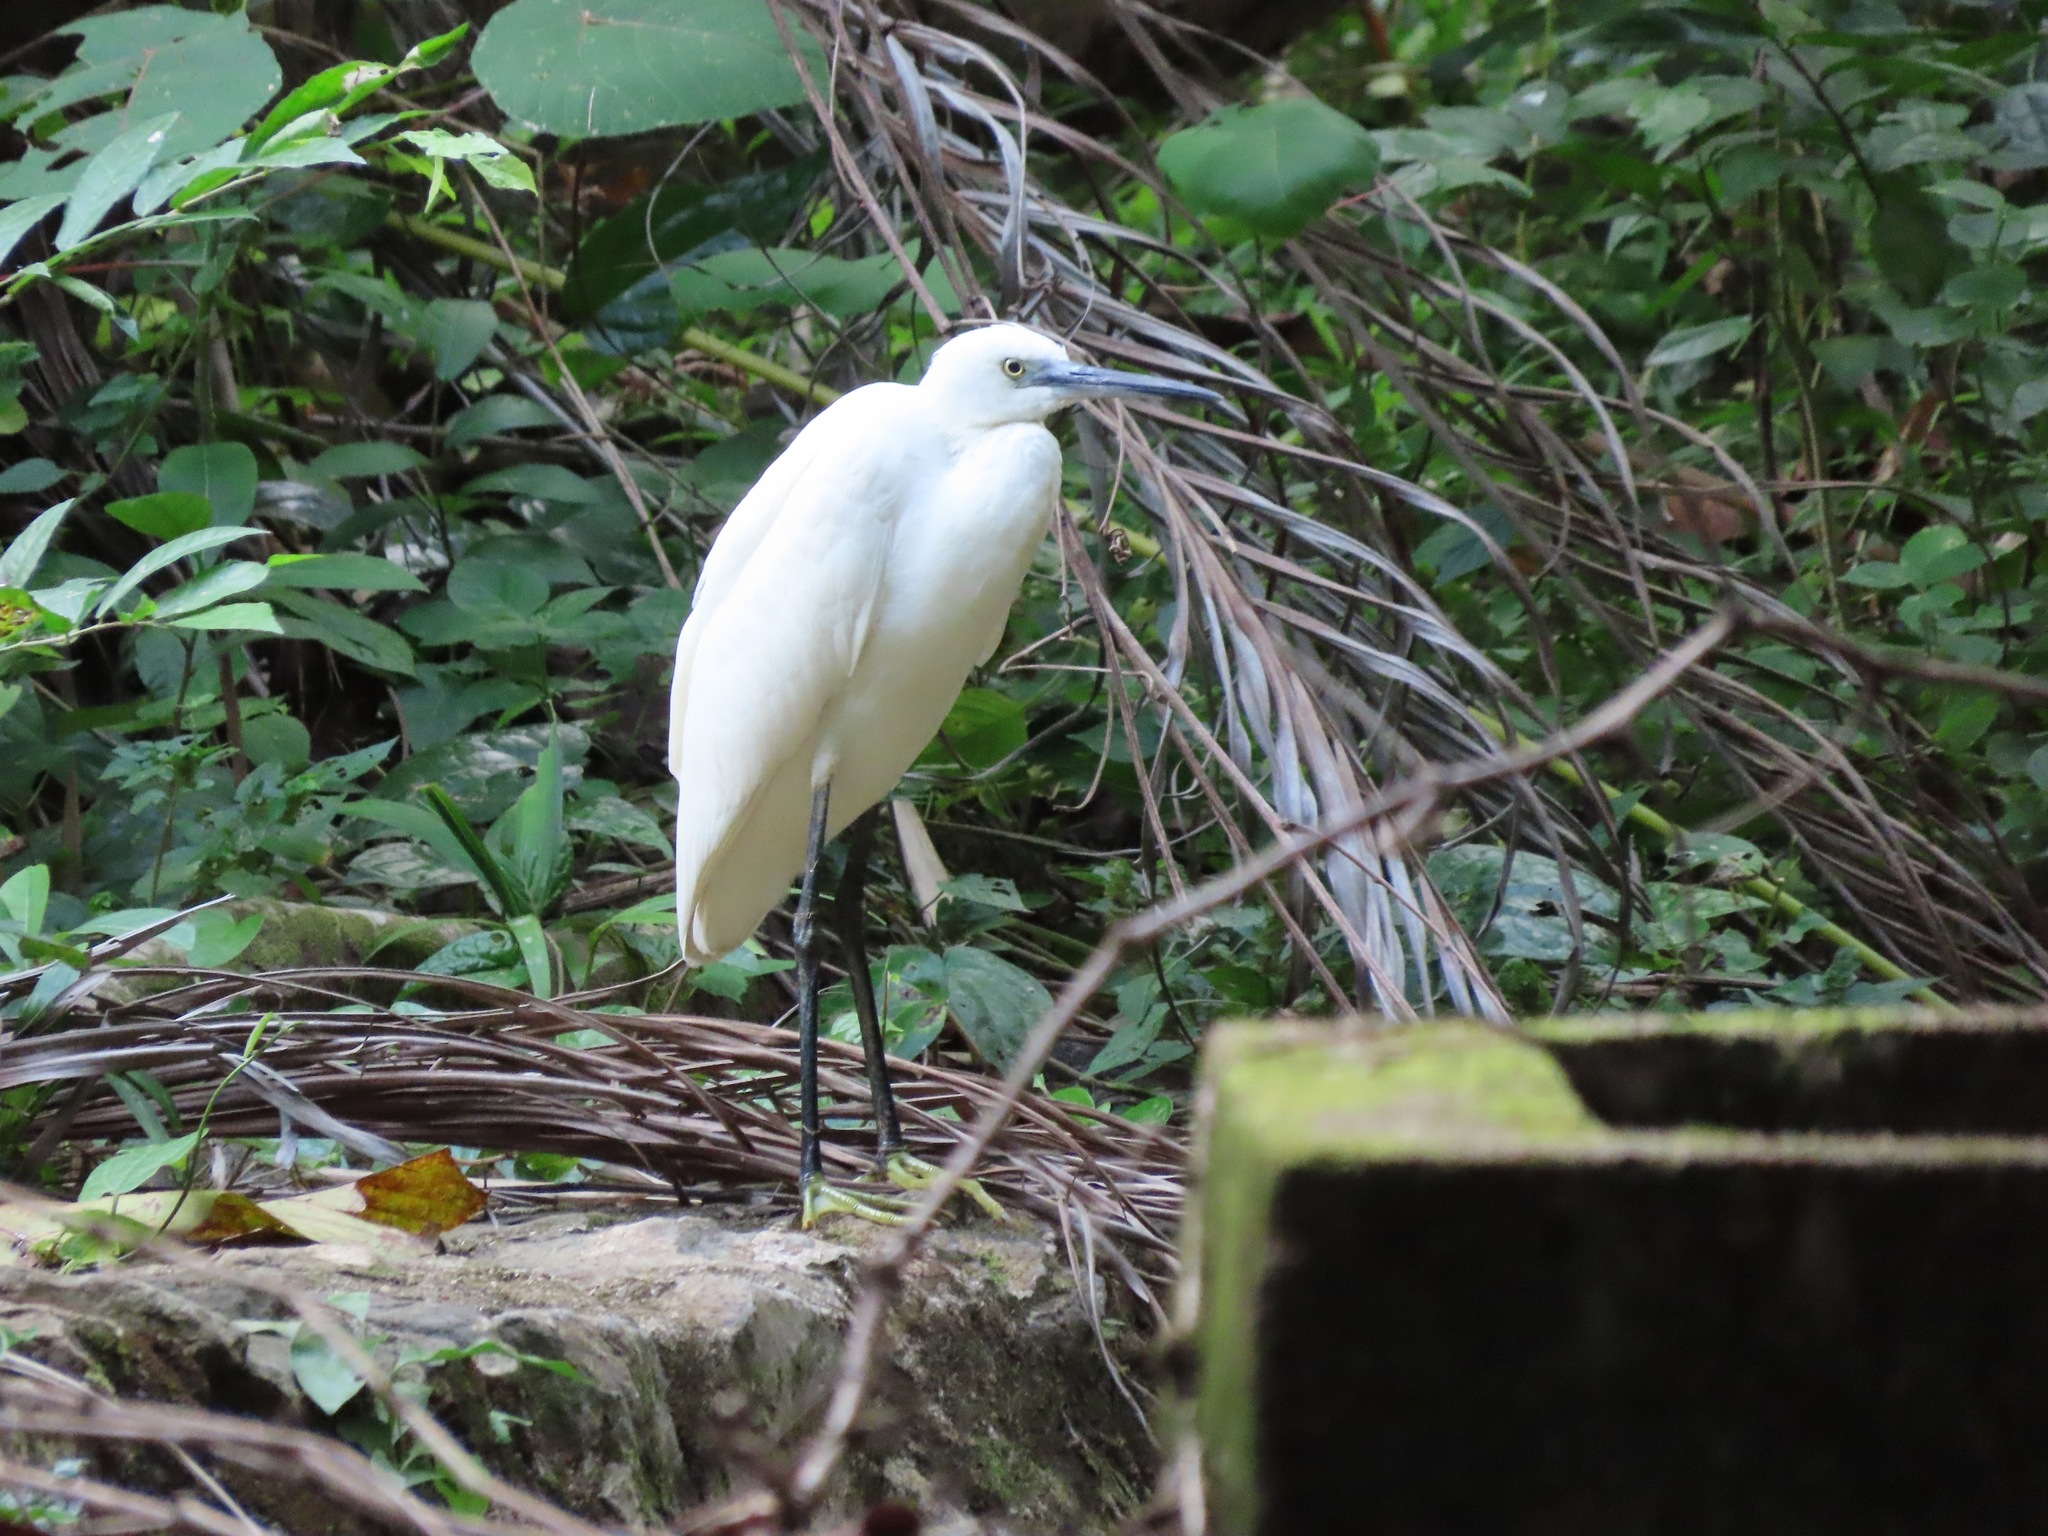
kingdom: Animalia
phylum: Chordata
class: Aves
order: Pelecaniformes
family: Ardeidae
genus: Egretta
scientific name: Egretta garzetta
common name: Little egret
